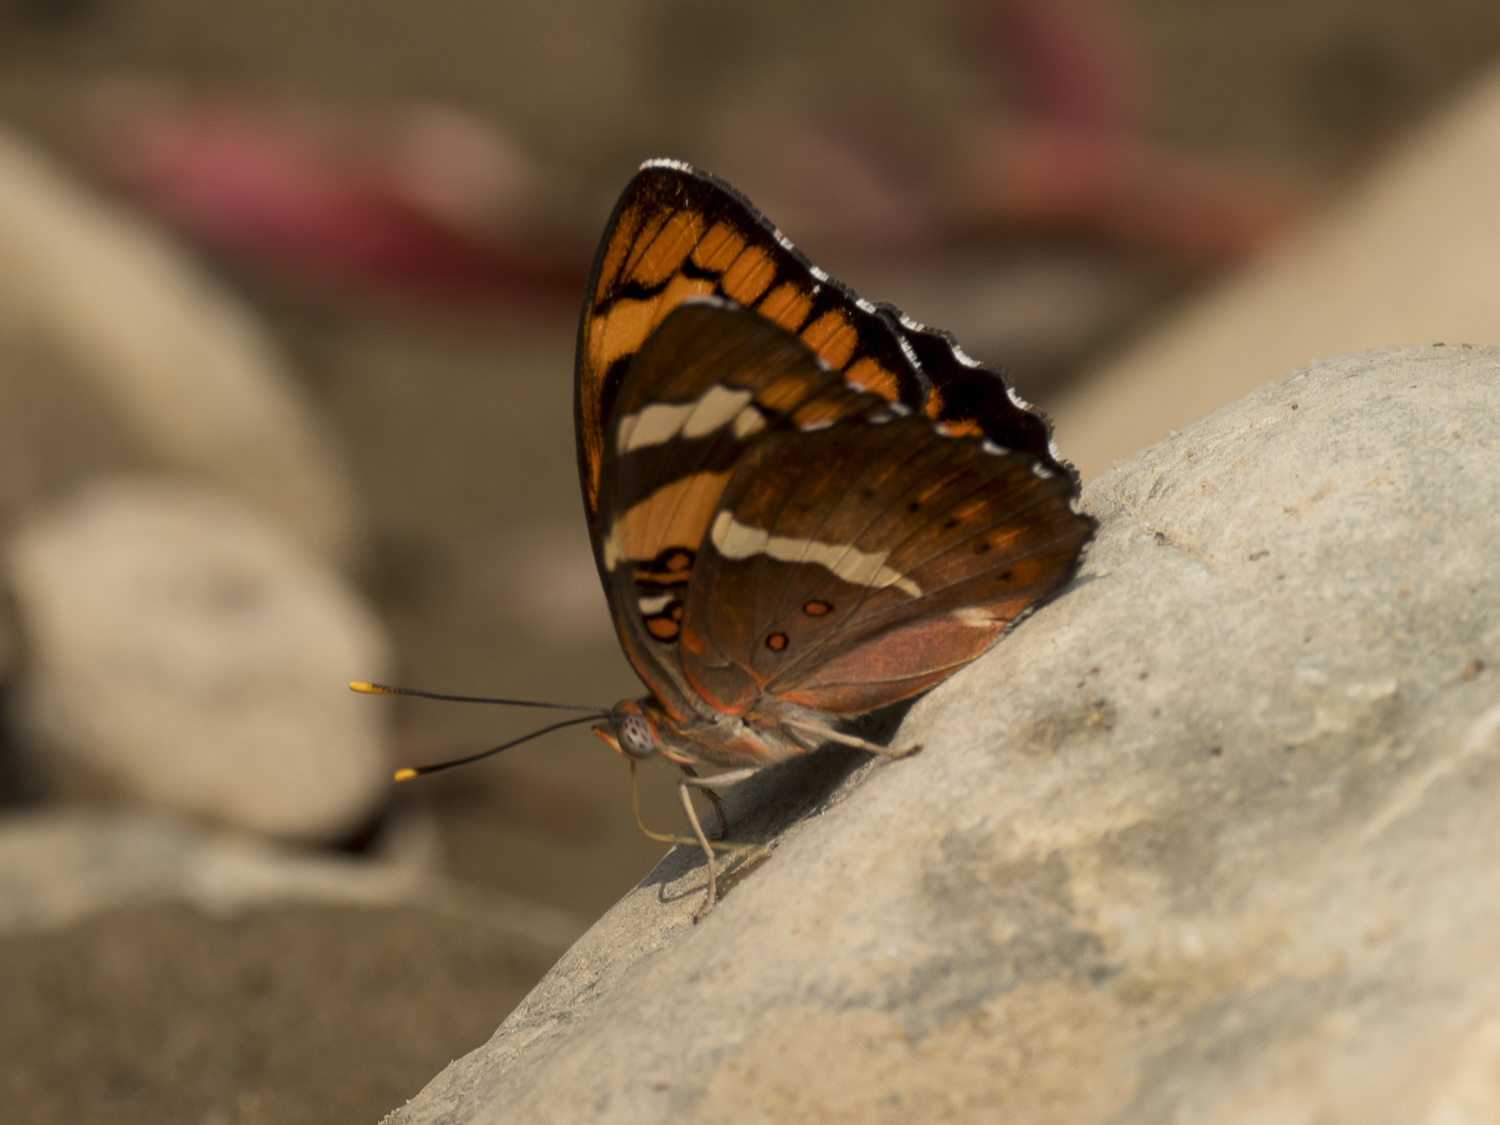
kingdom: Animalia
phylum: Arthropoda
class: Insecta
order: Lepidoptera
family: Nymphalidae
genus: Euthalia
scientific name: Euthalia nais
